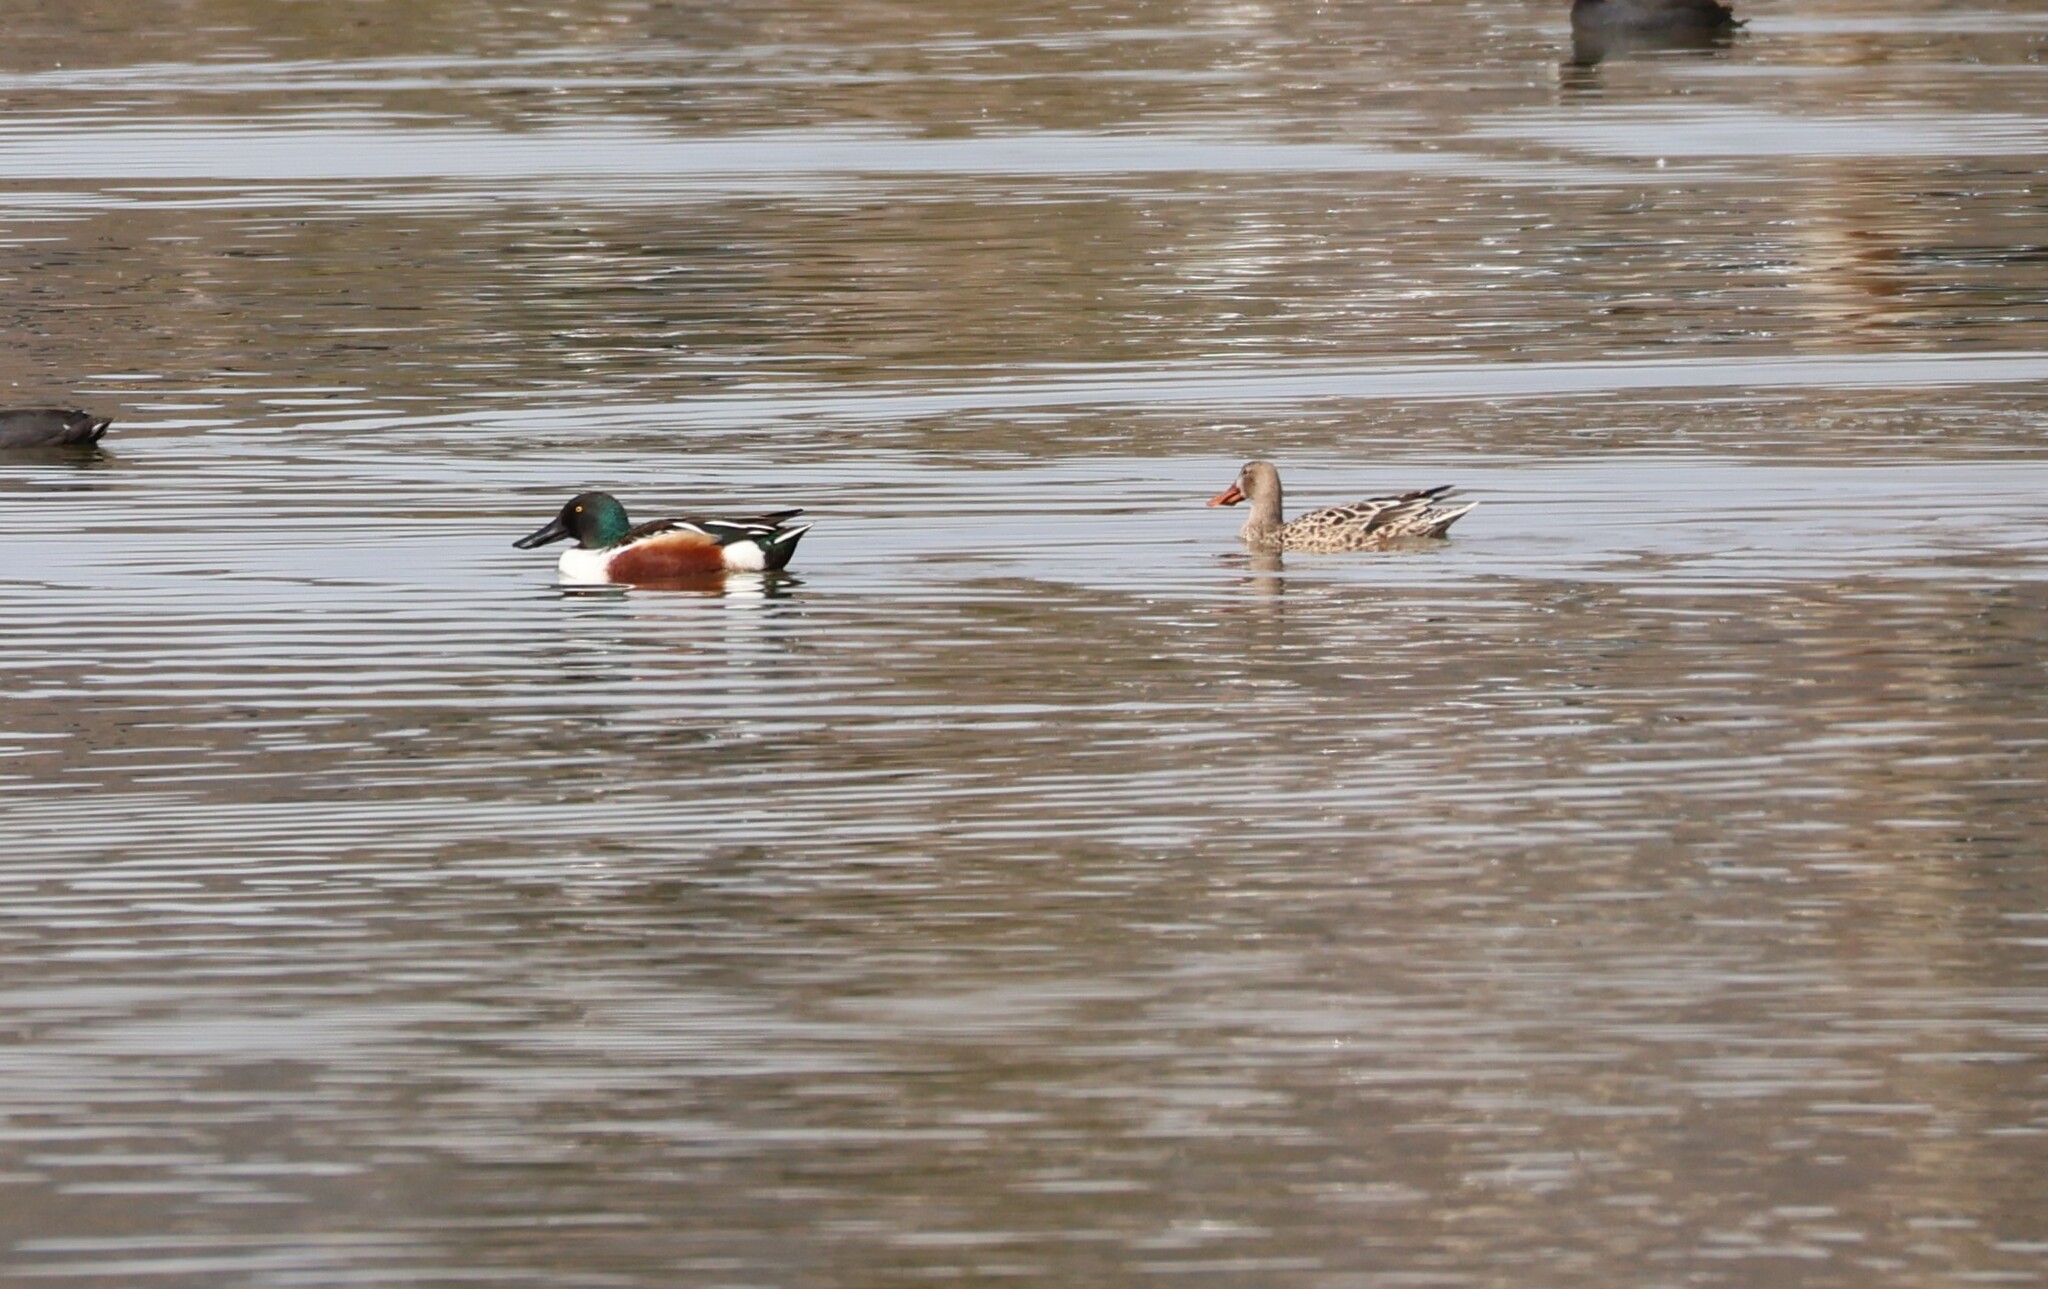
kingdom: Animalia
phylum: Chordata
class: Aves
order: Anseriformes
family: Anatidae
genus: Spatula
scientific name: Spatula clypeata
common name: Northern shoveler
